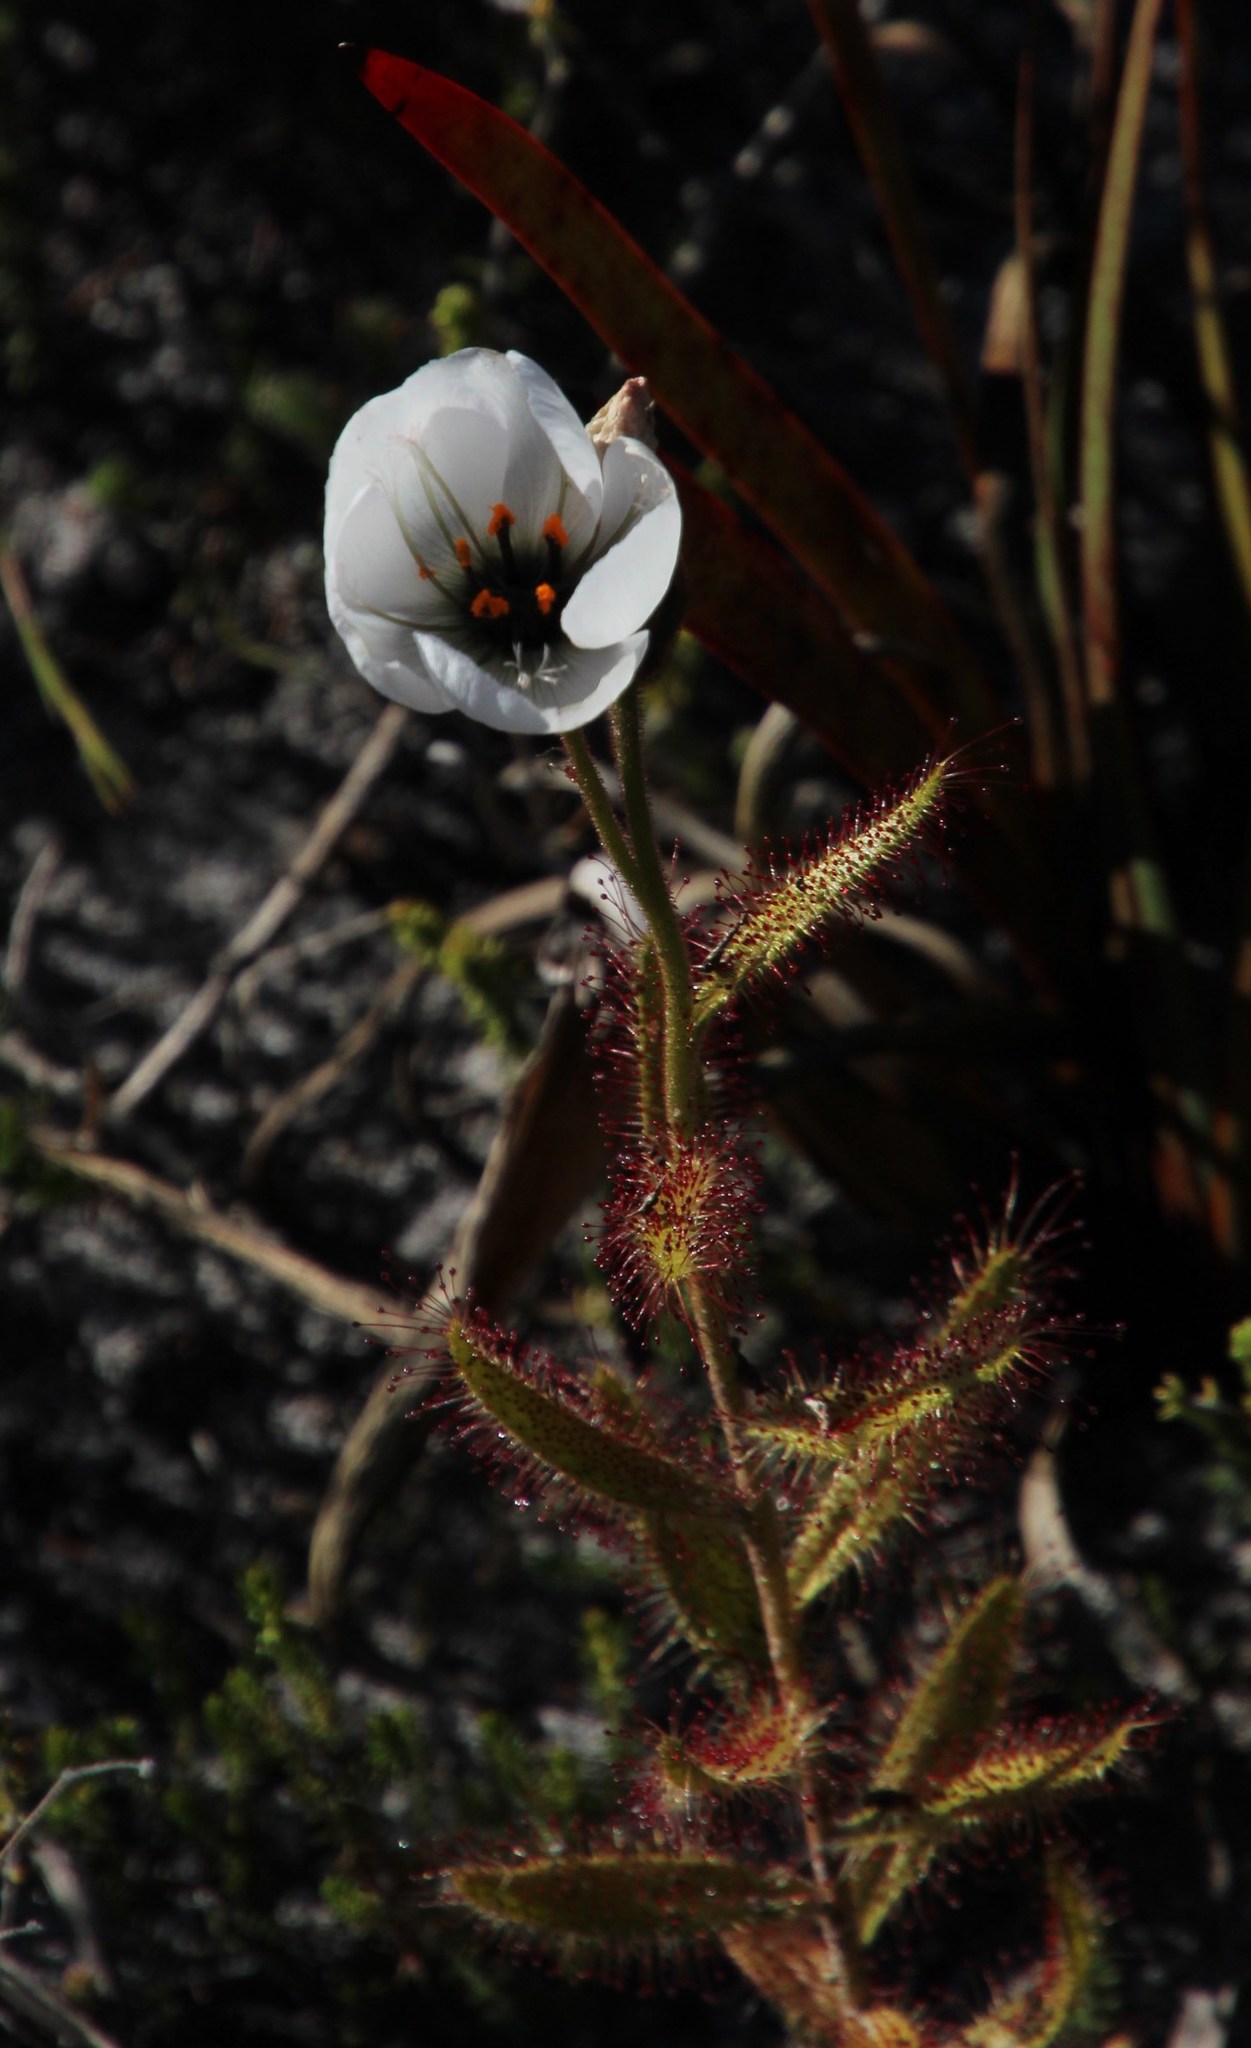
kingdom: Plantae
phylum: Tracheophyta
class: Magnoliopsida
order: Caryophyllales
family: Droseraceae
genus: Drosera
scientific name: Drosera cistiflora
